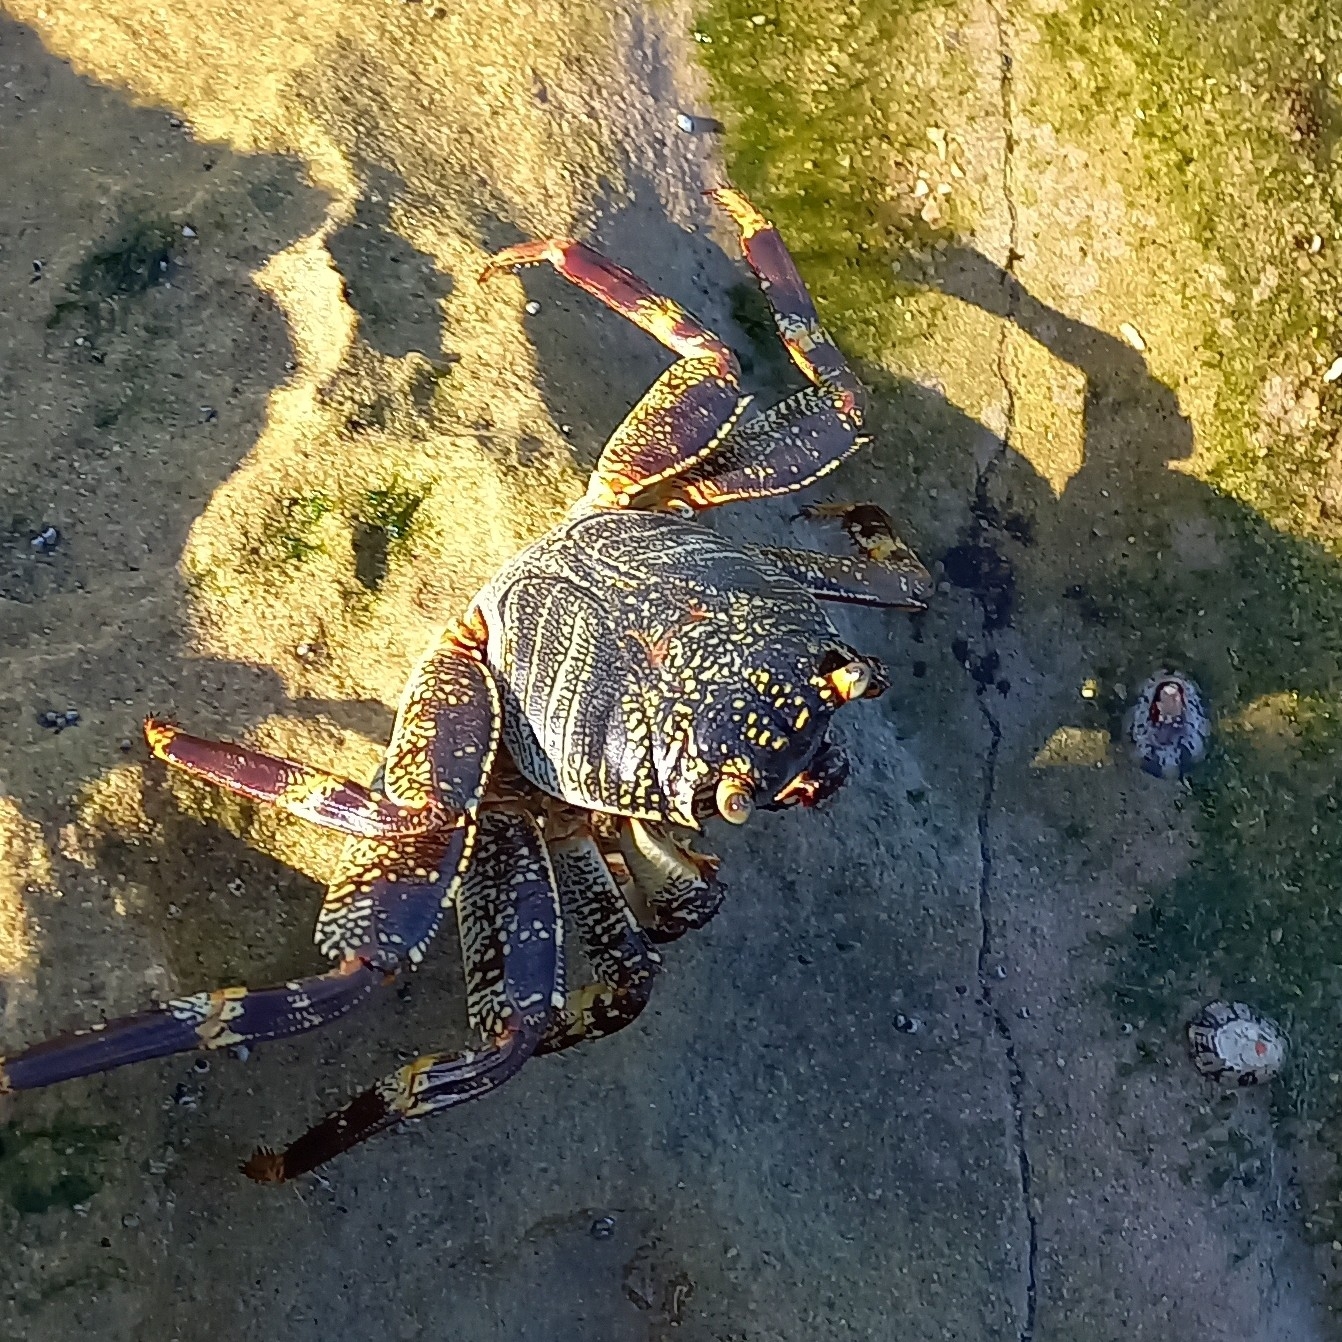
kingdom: Animalia
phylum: Arthropoda
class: Malacostraca
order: Decapoda
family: Grapsidae
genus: Grapsus
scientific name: Grapsus tenuicrustatus
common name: Natal lightfoot crab
